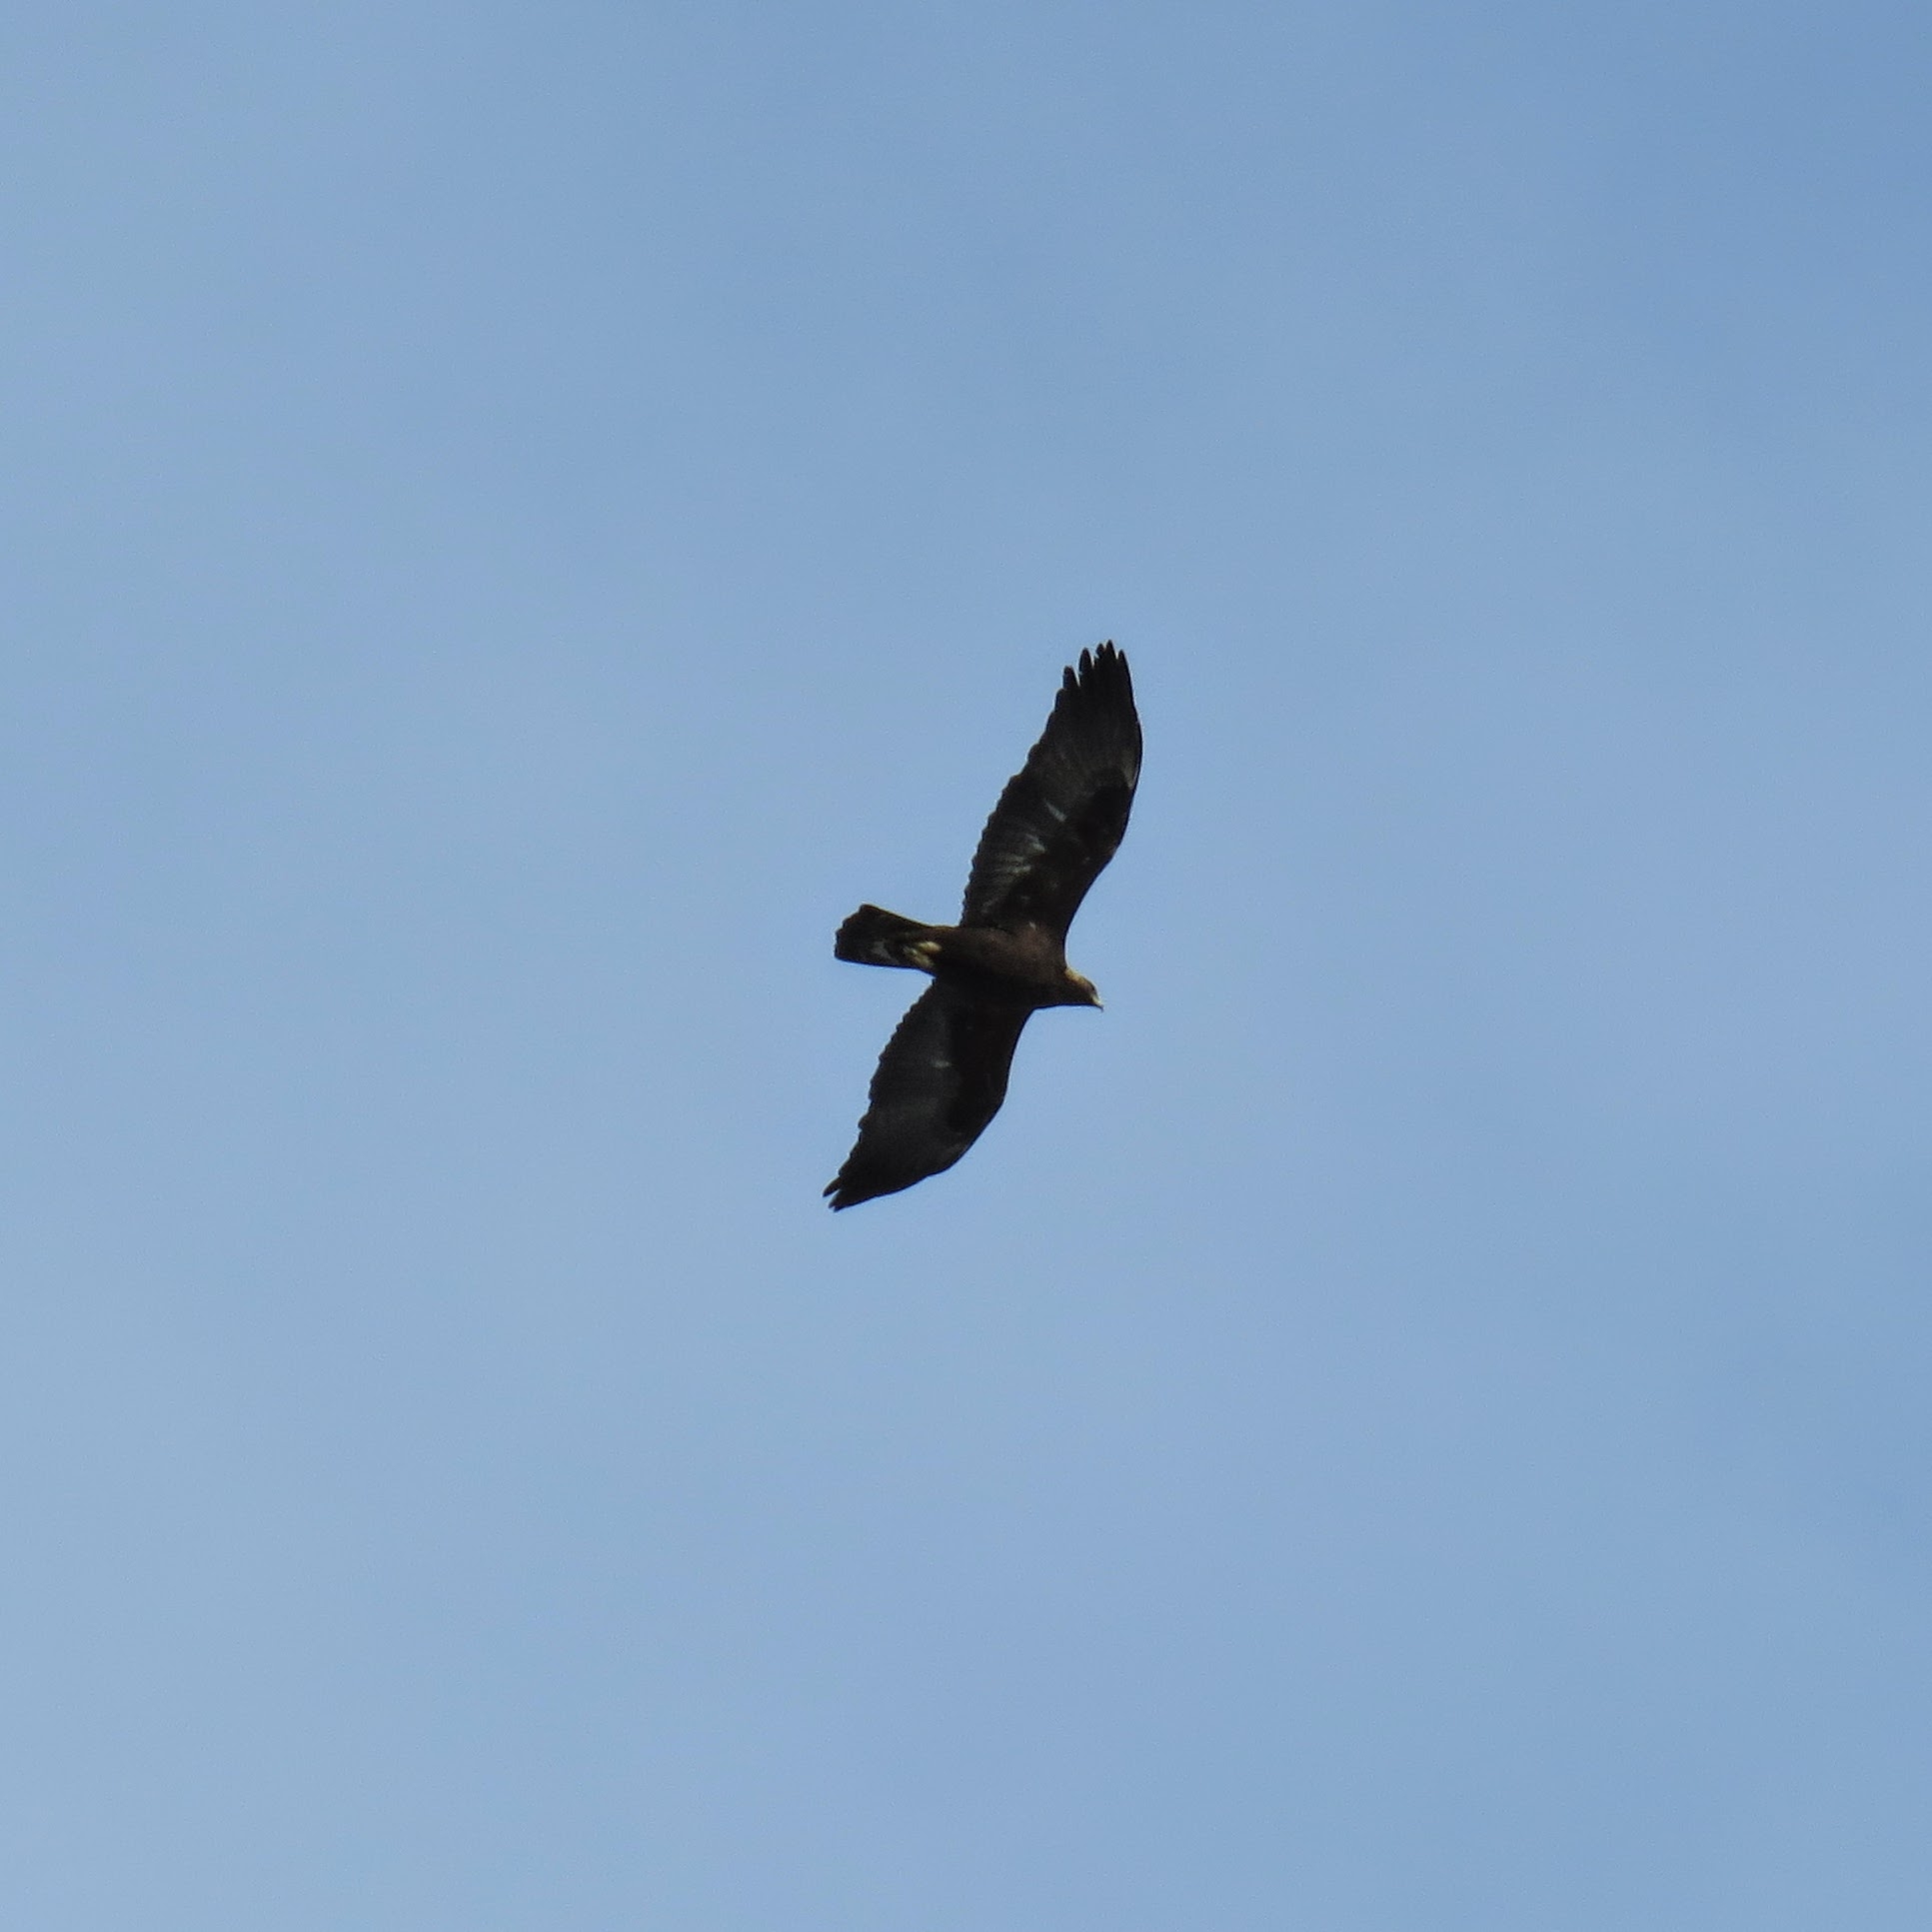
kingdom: Animalia
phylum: Chordata
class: Aves
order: Accipitriformes
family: Accipitridae
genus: Aquila
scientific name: Aquila chrysaetos
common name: Golden eagle
